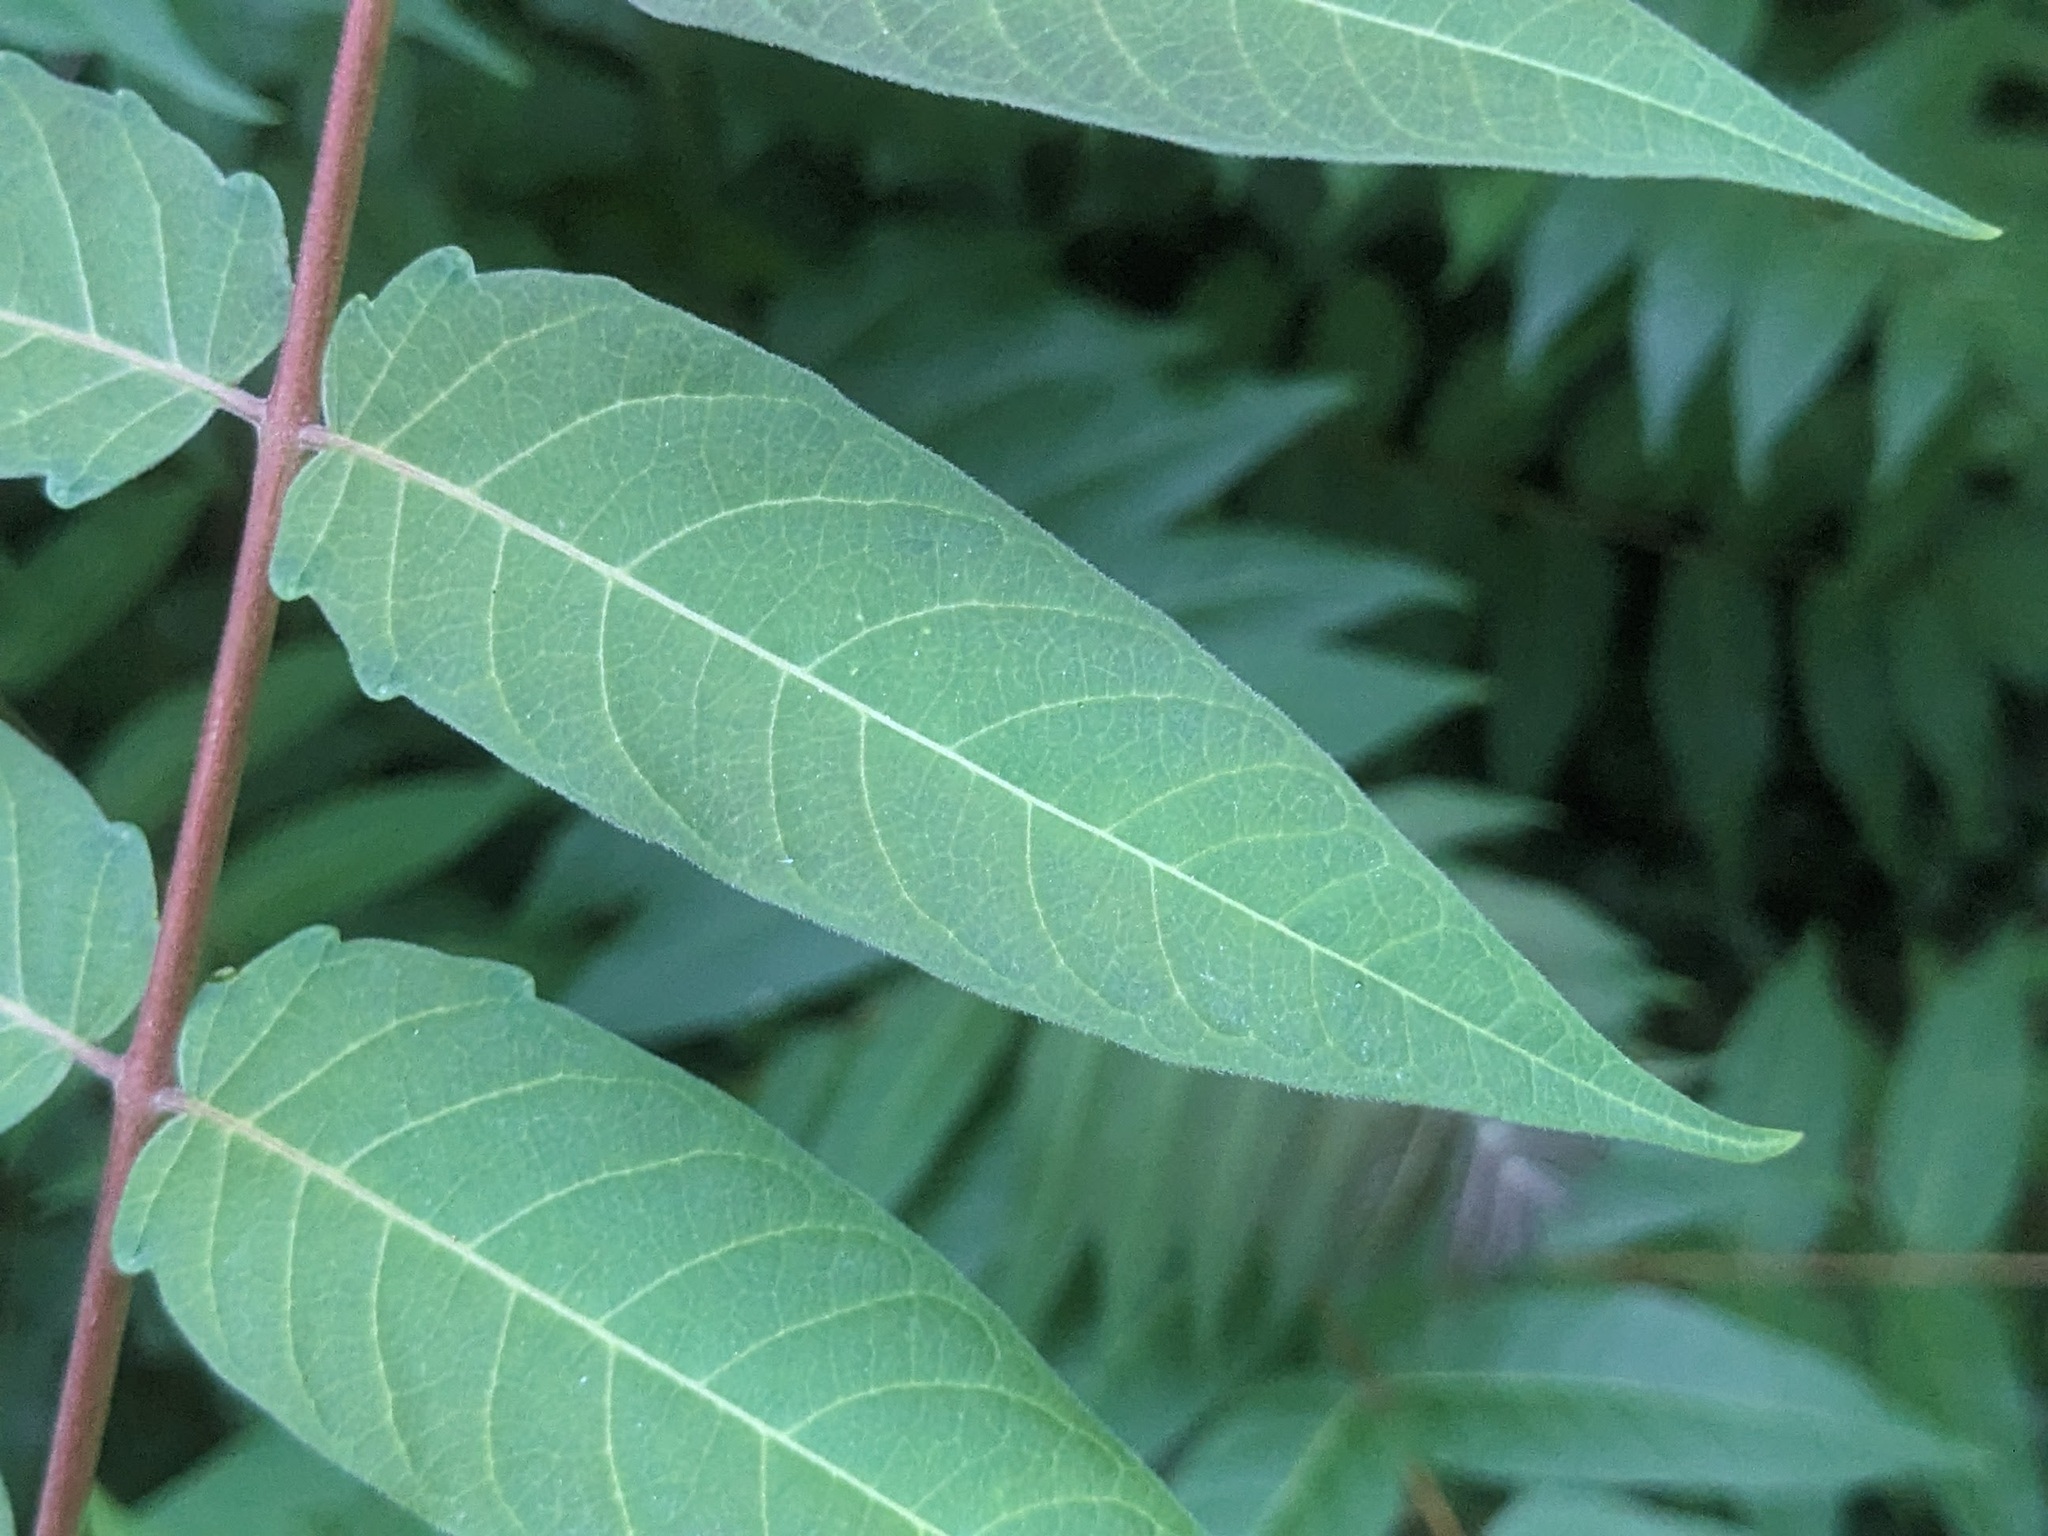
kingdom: Plantae
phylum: Tracheophyta
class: Magnoliopsida
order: Sapindales
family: Simaroubaceae
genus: Ailanthus
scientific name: Ailanthus altissima
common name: Tree-of-heaven
